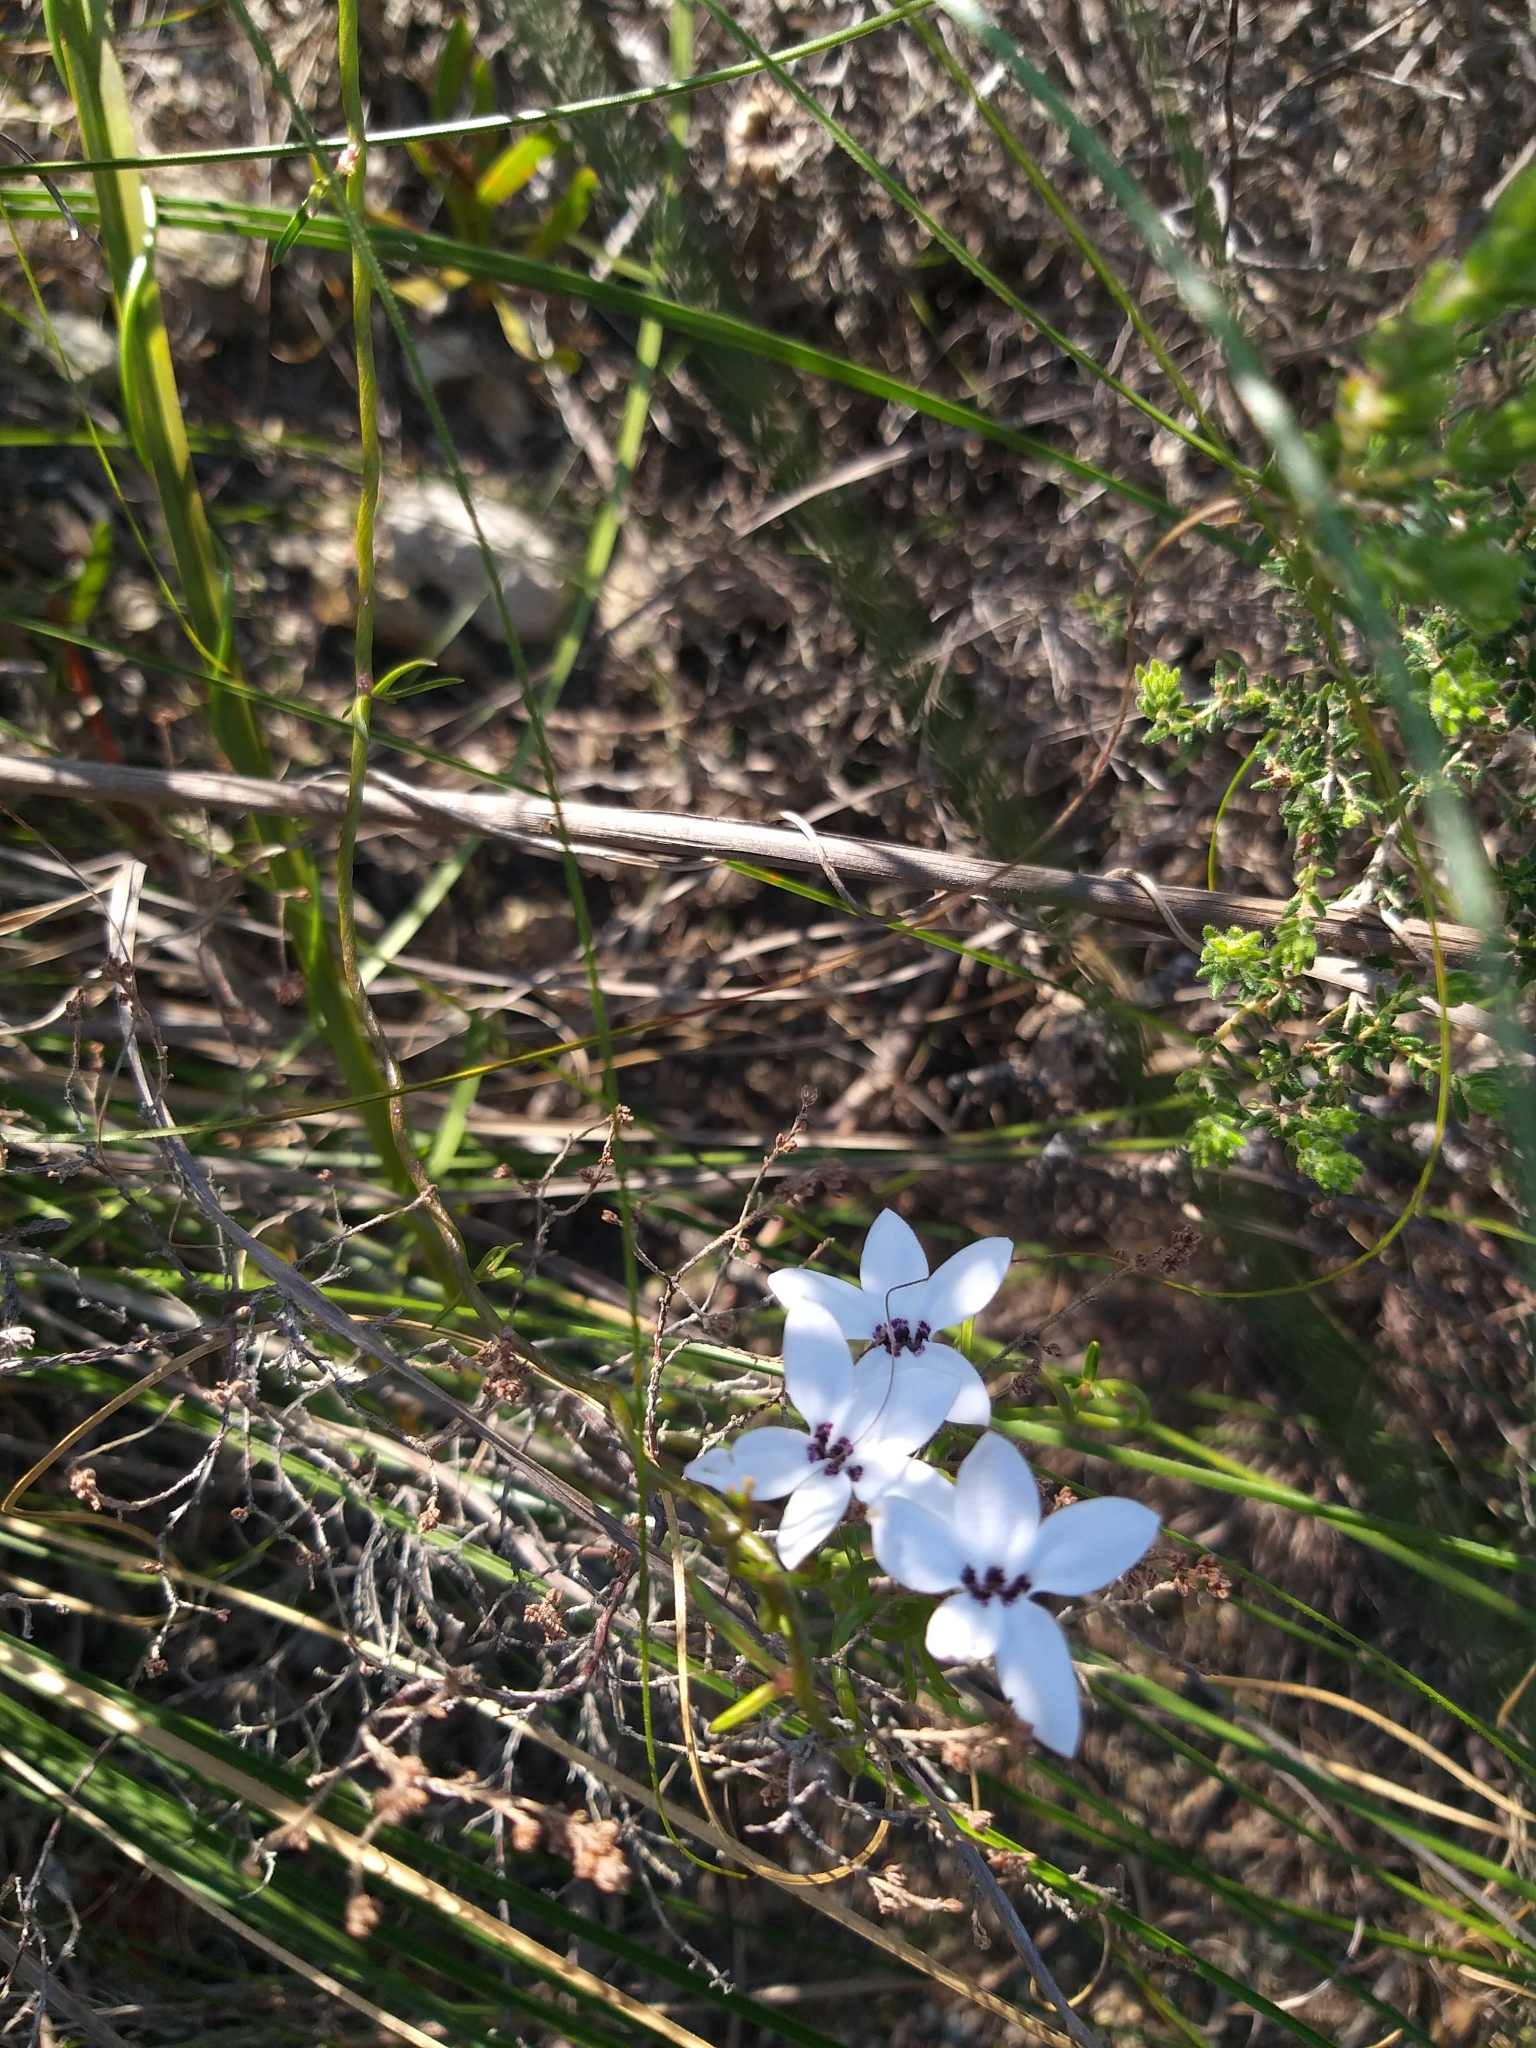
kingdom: Plantae
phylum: Tracheophyta
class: Magnoliopsida
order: Asterales
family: Campanulaceae
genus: Cyphia
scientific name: Cyphia volubilis
